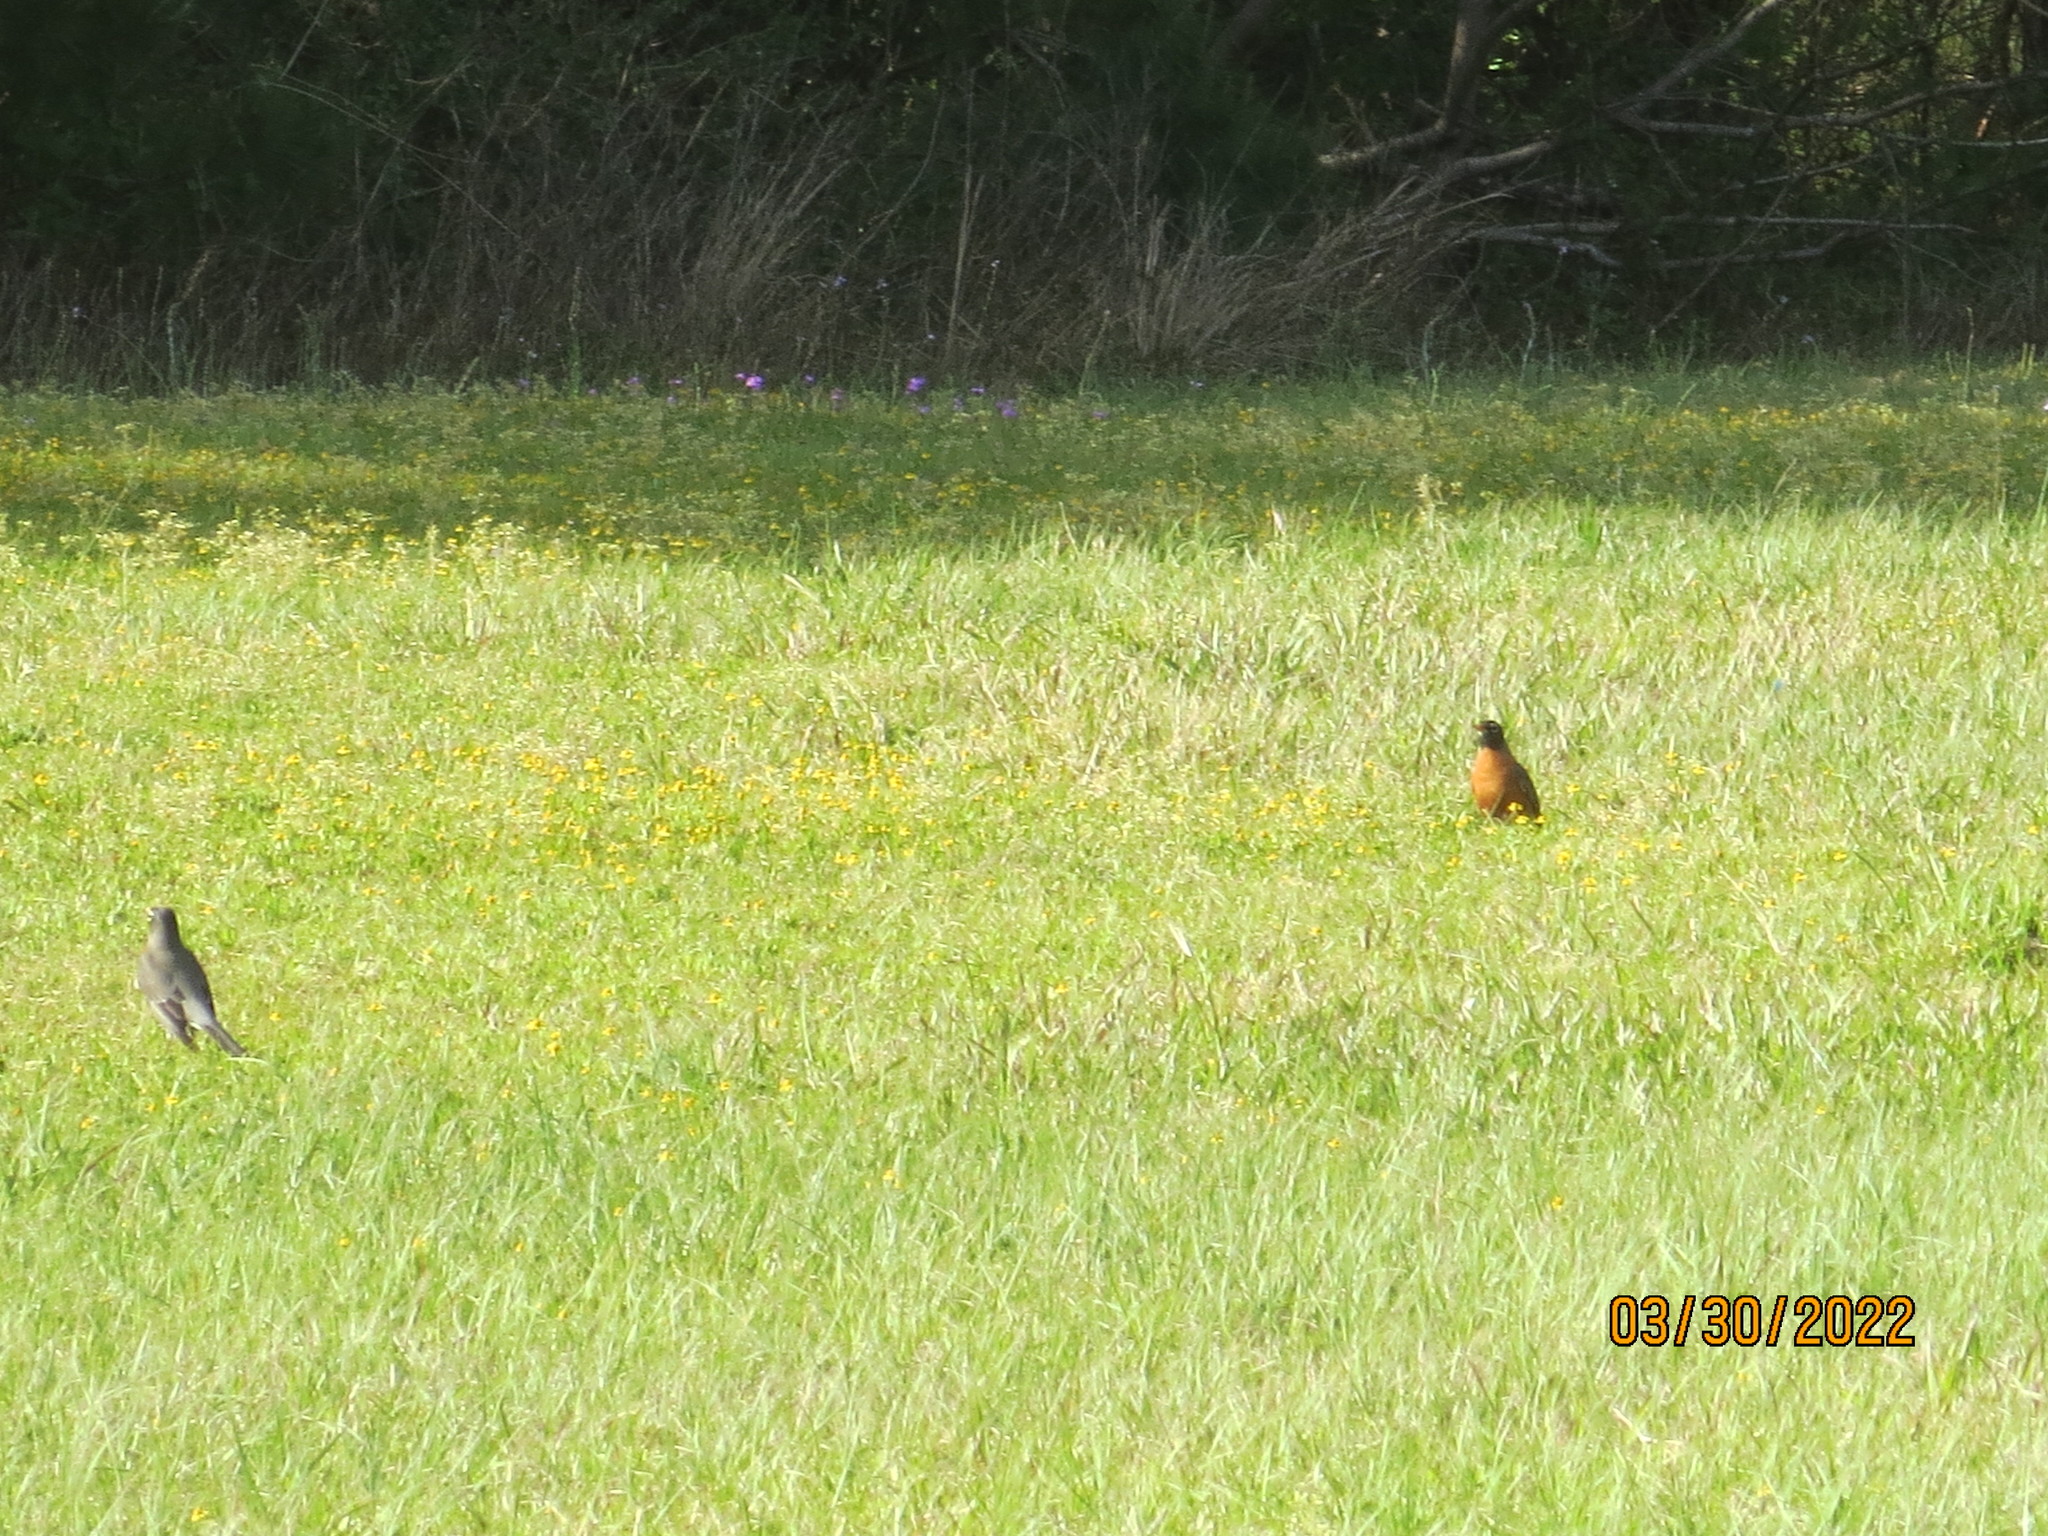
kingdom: Animalia
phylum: Chordata
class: Aves
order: Passeriformes
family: Turdidae
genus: Turdus
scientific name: Turdus migratorius
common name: American robin
